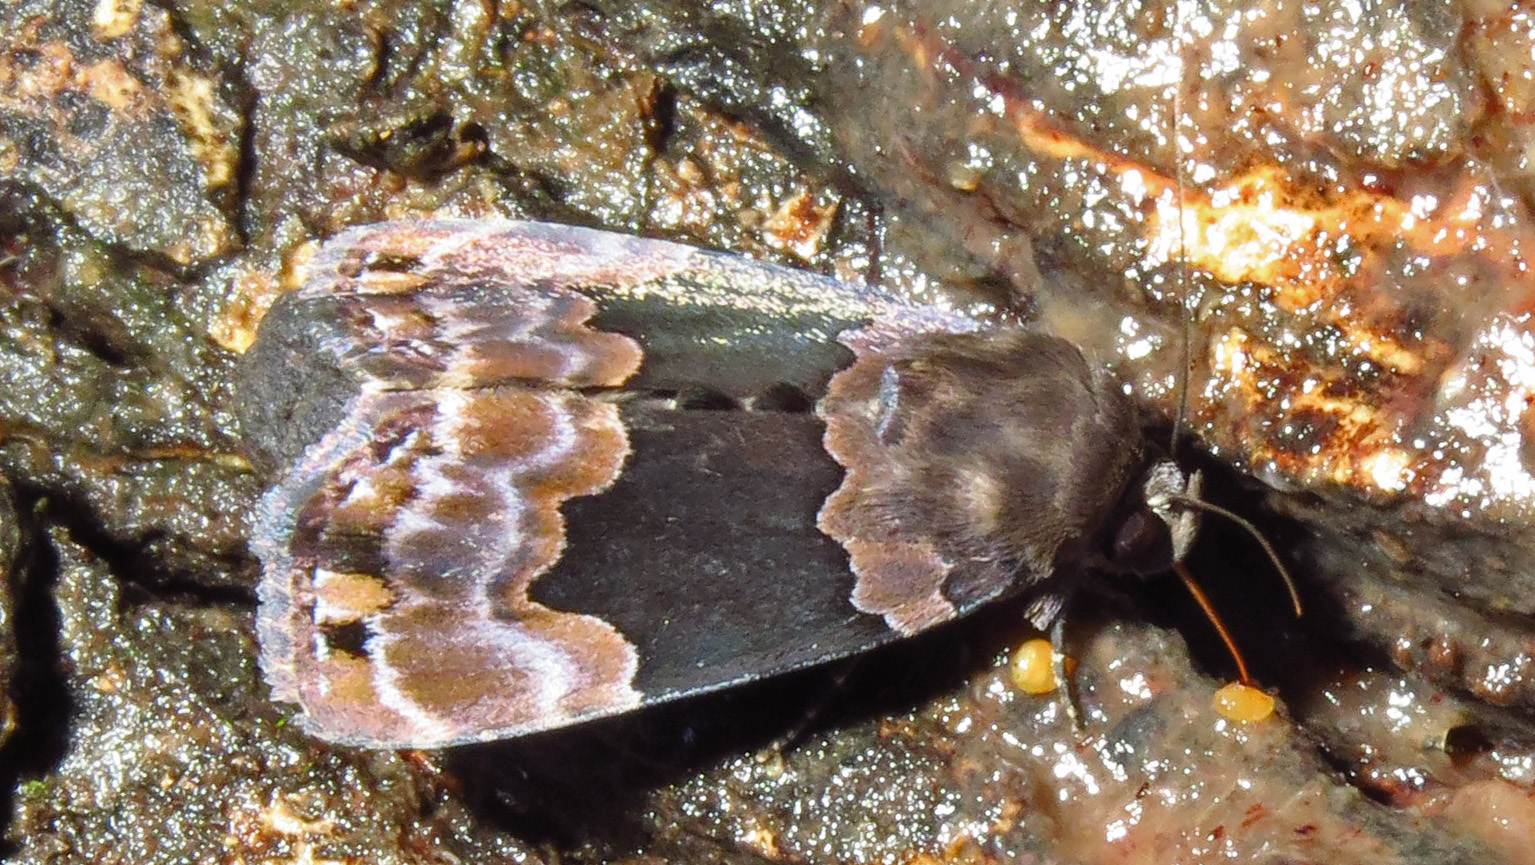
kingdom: Animalia
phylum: Arthropoda
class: Insecta
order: Lepidoptera
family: Erebidae
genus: Dinumma
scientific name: Dinumma deponens
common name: Purplish moth
